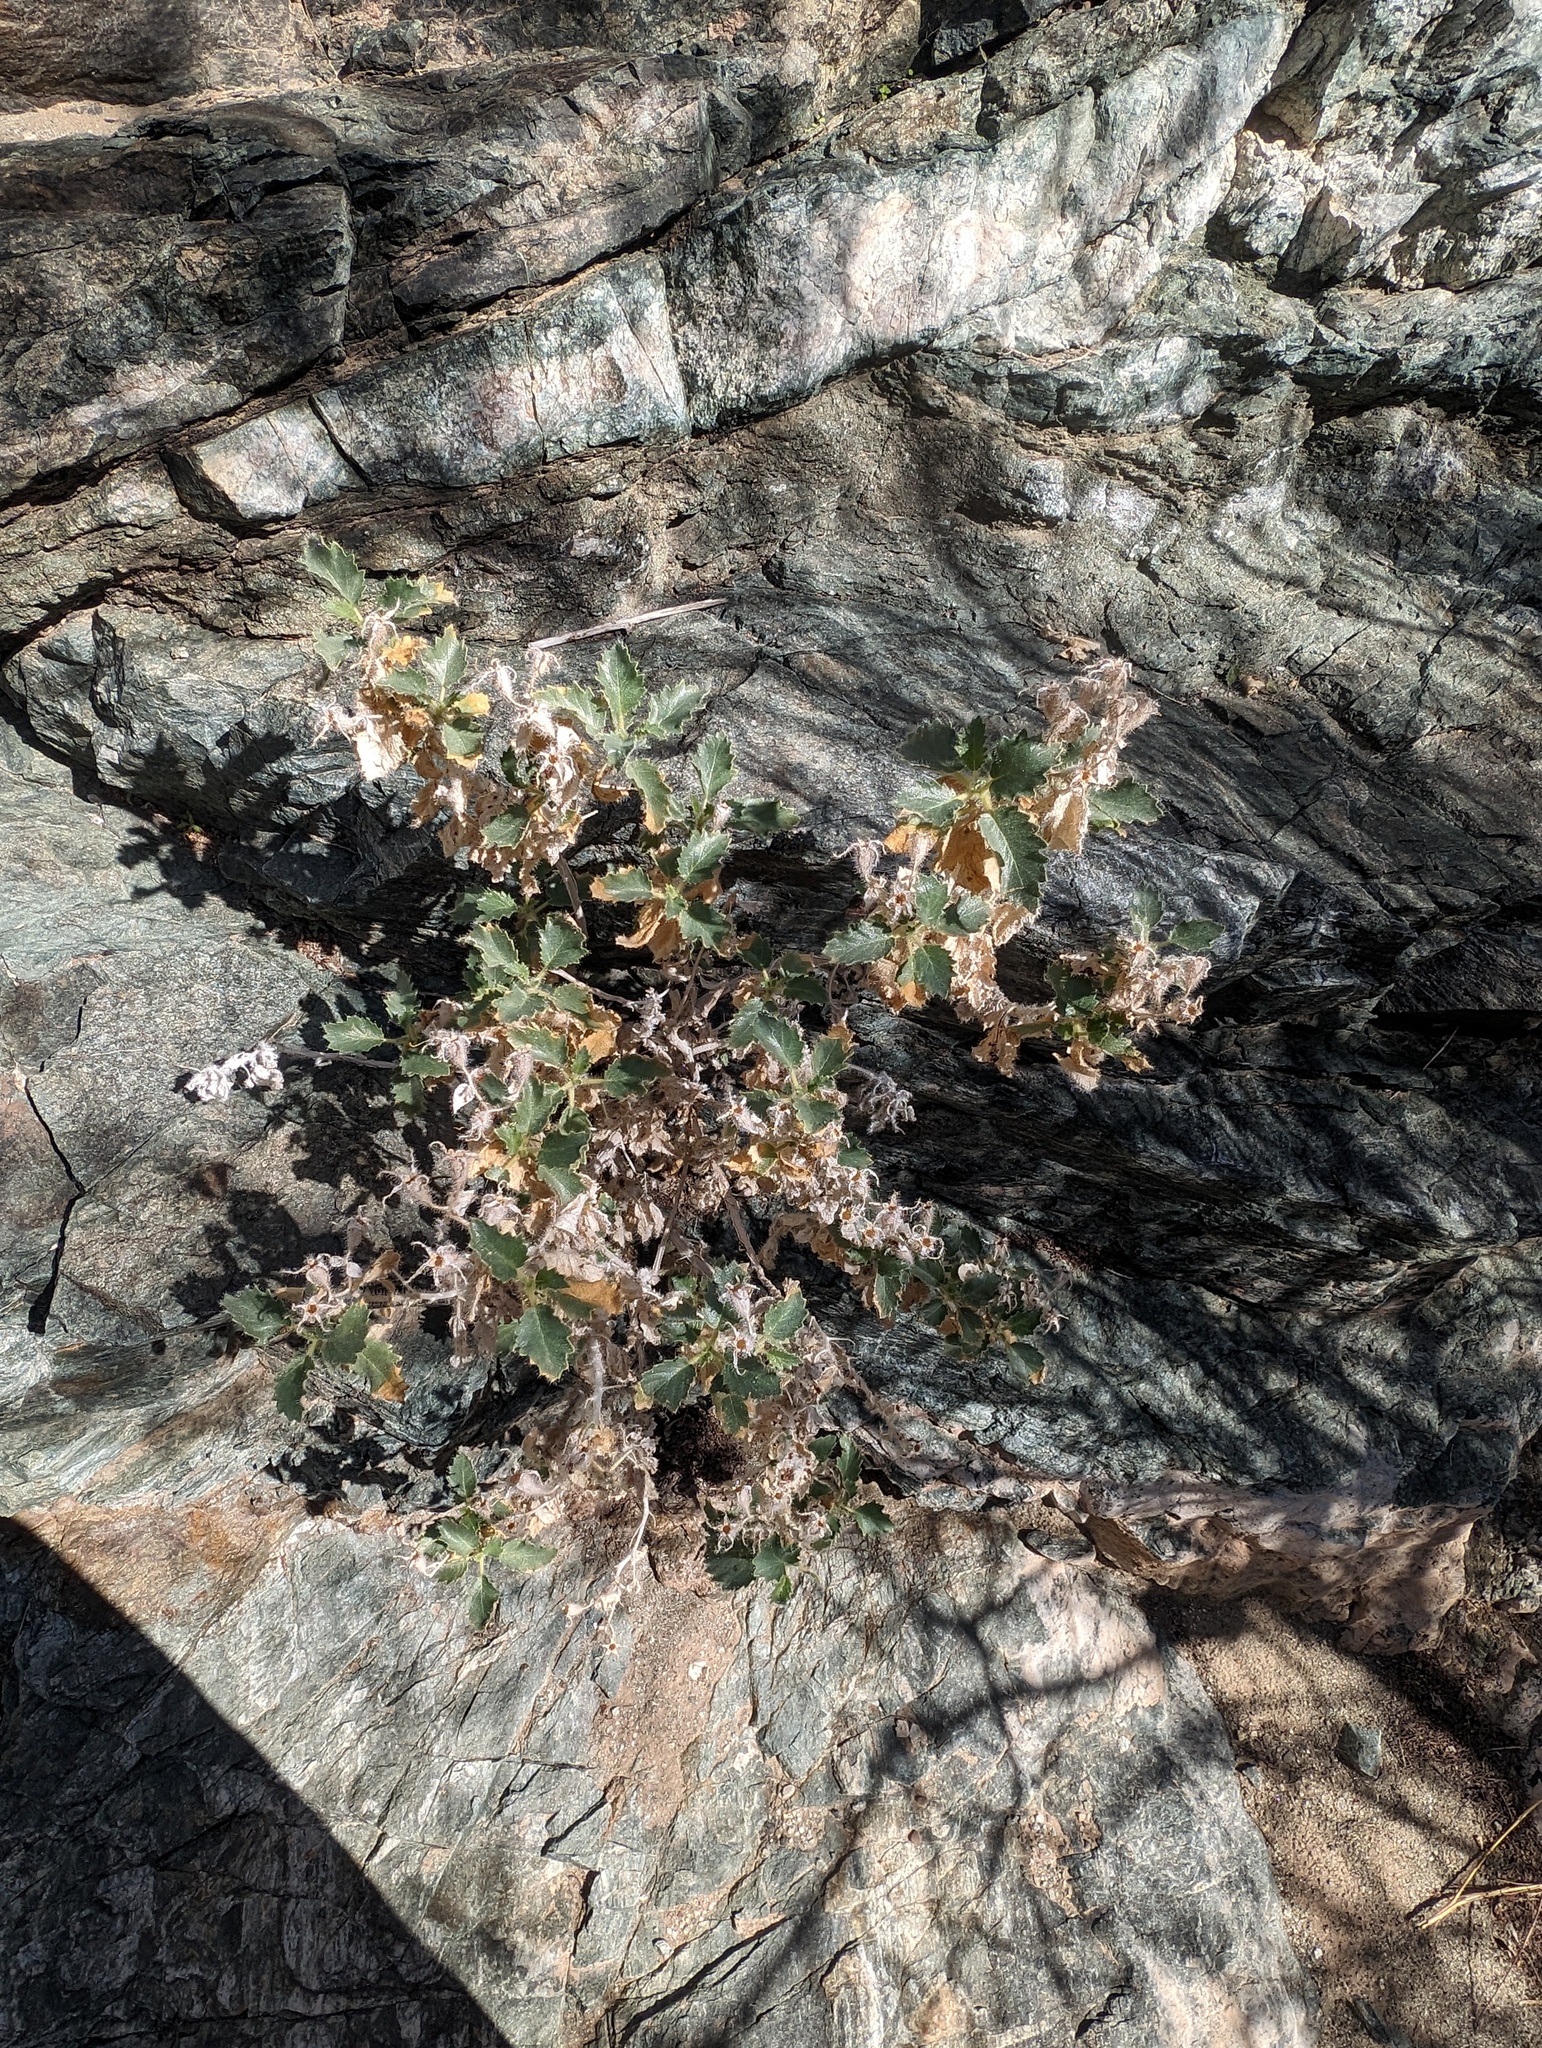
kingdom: Plantae
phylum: Tracheophyta
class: Magnoliopsida
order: Cornales
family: Loasaceae
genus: Eucnide
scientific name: Eucnide urens
